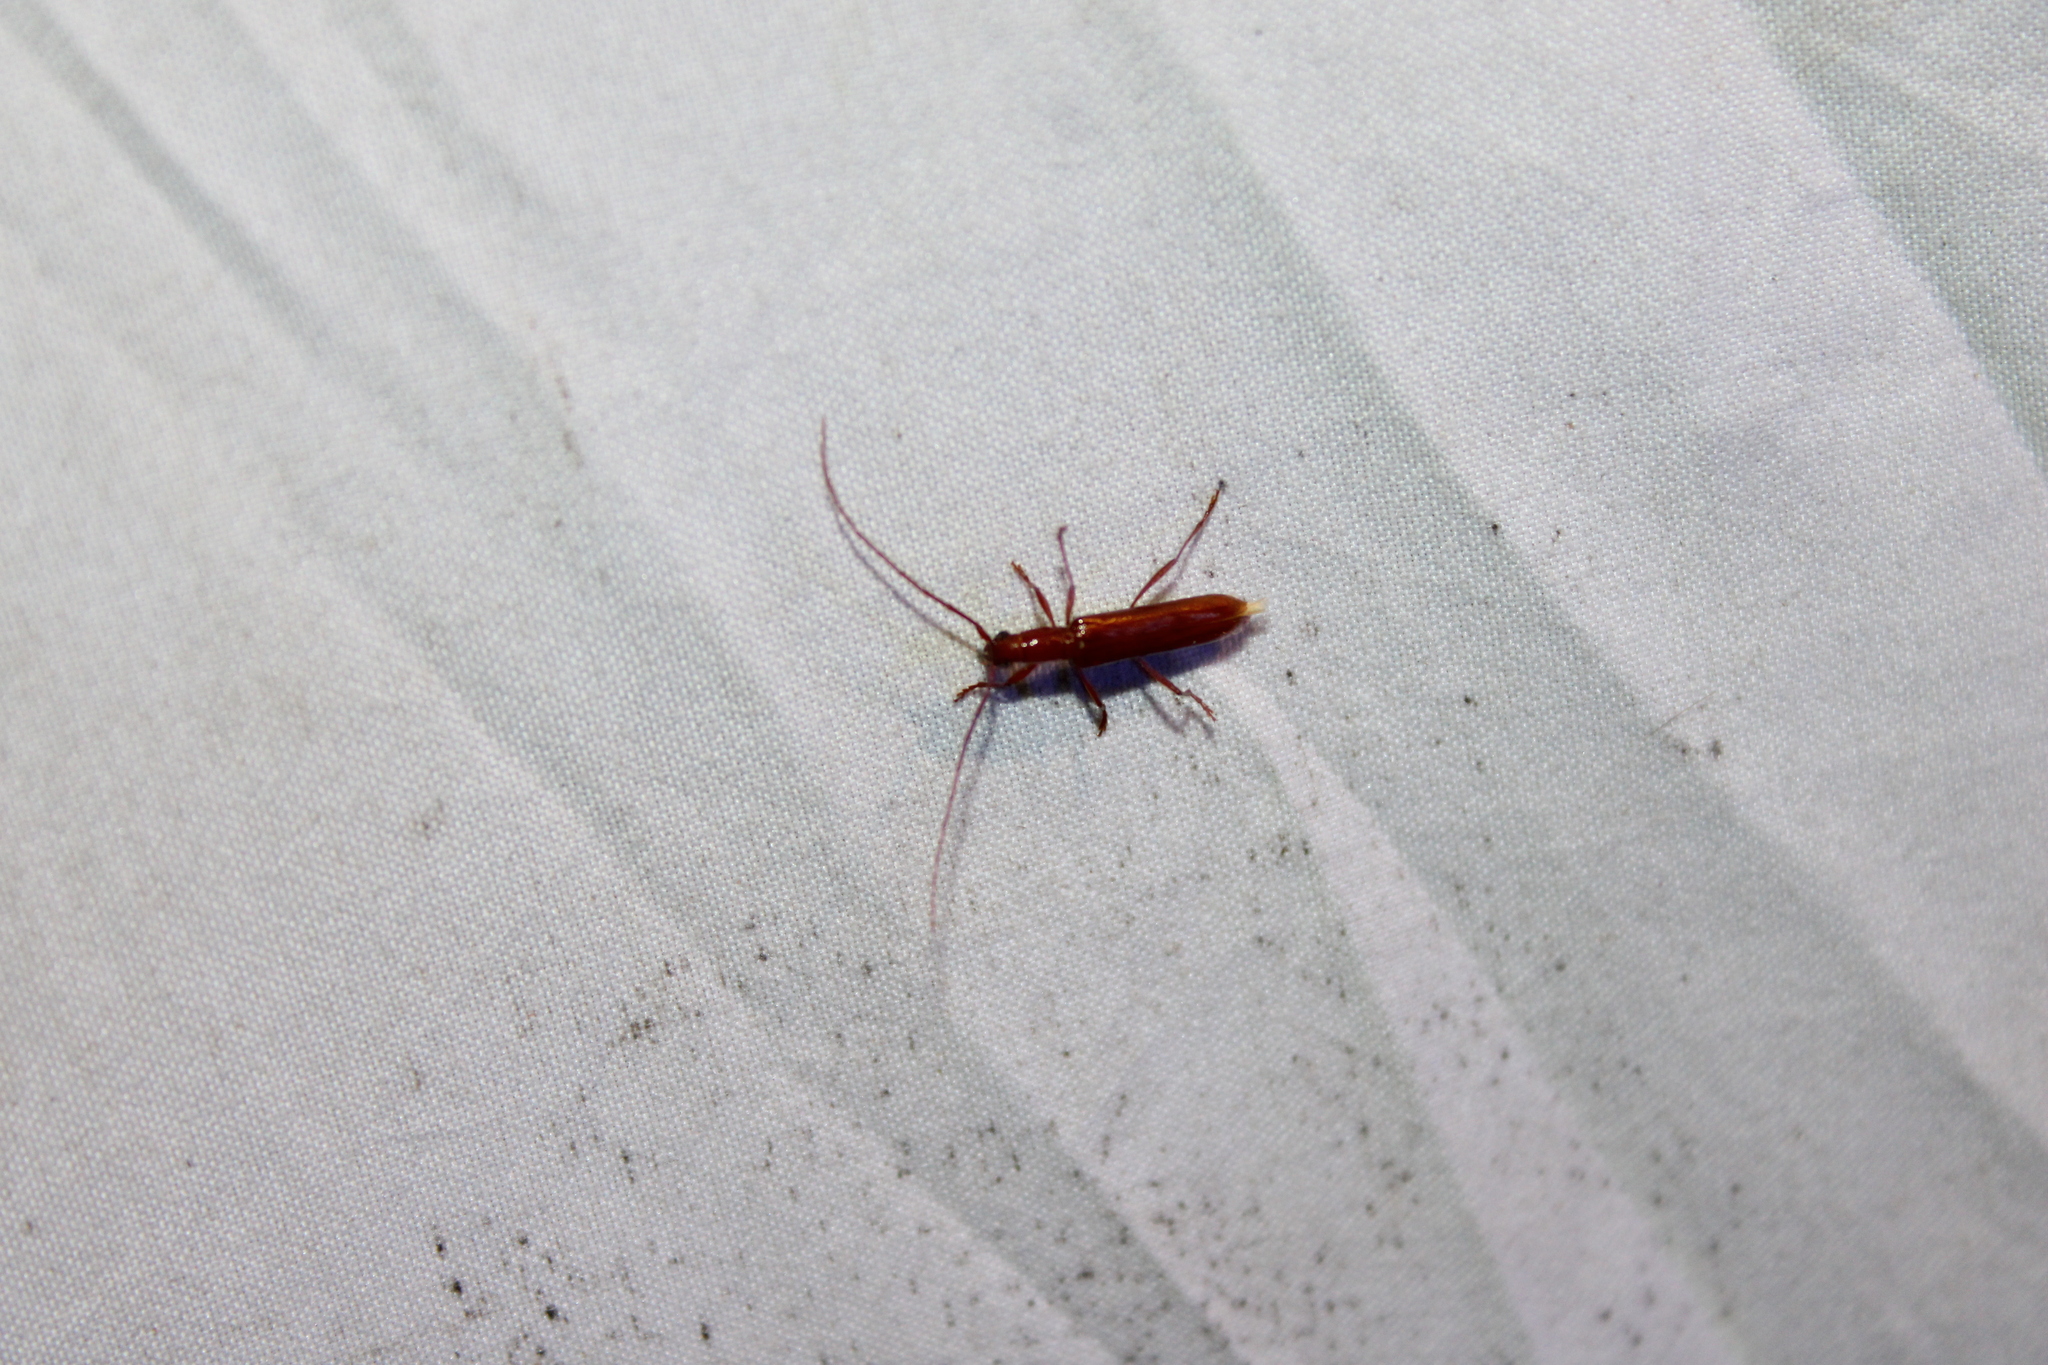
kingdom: Animalia
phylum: Arthropoda
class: Insecta
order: Coleoptera
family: Cerambycidae
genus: Psyrassa
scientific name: Psyrassa unicolor
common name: Branch pruner
